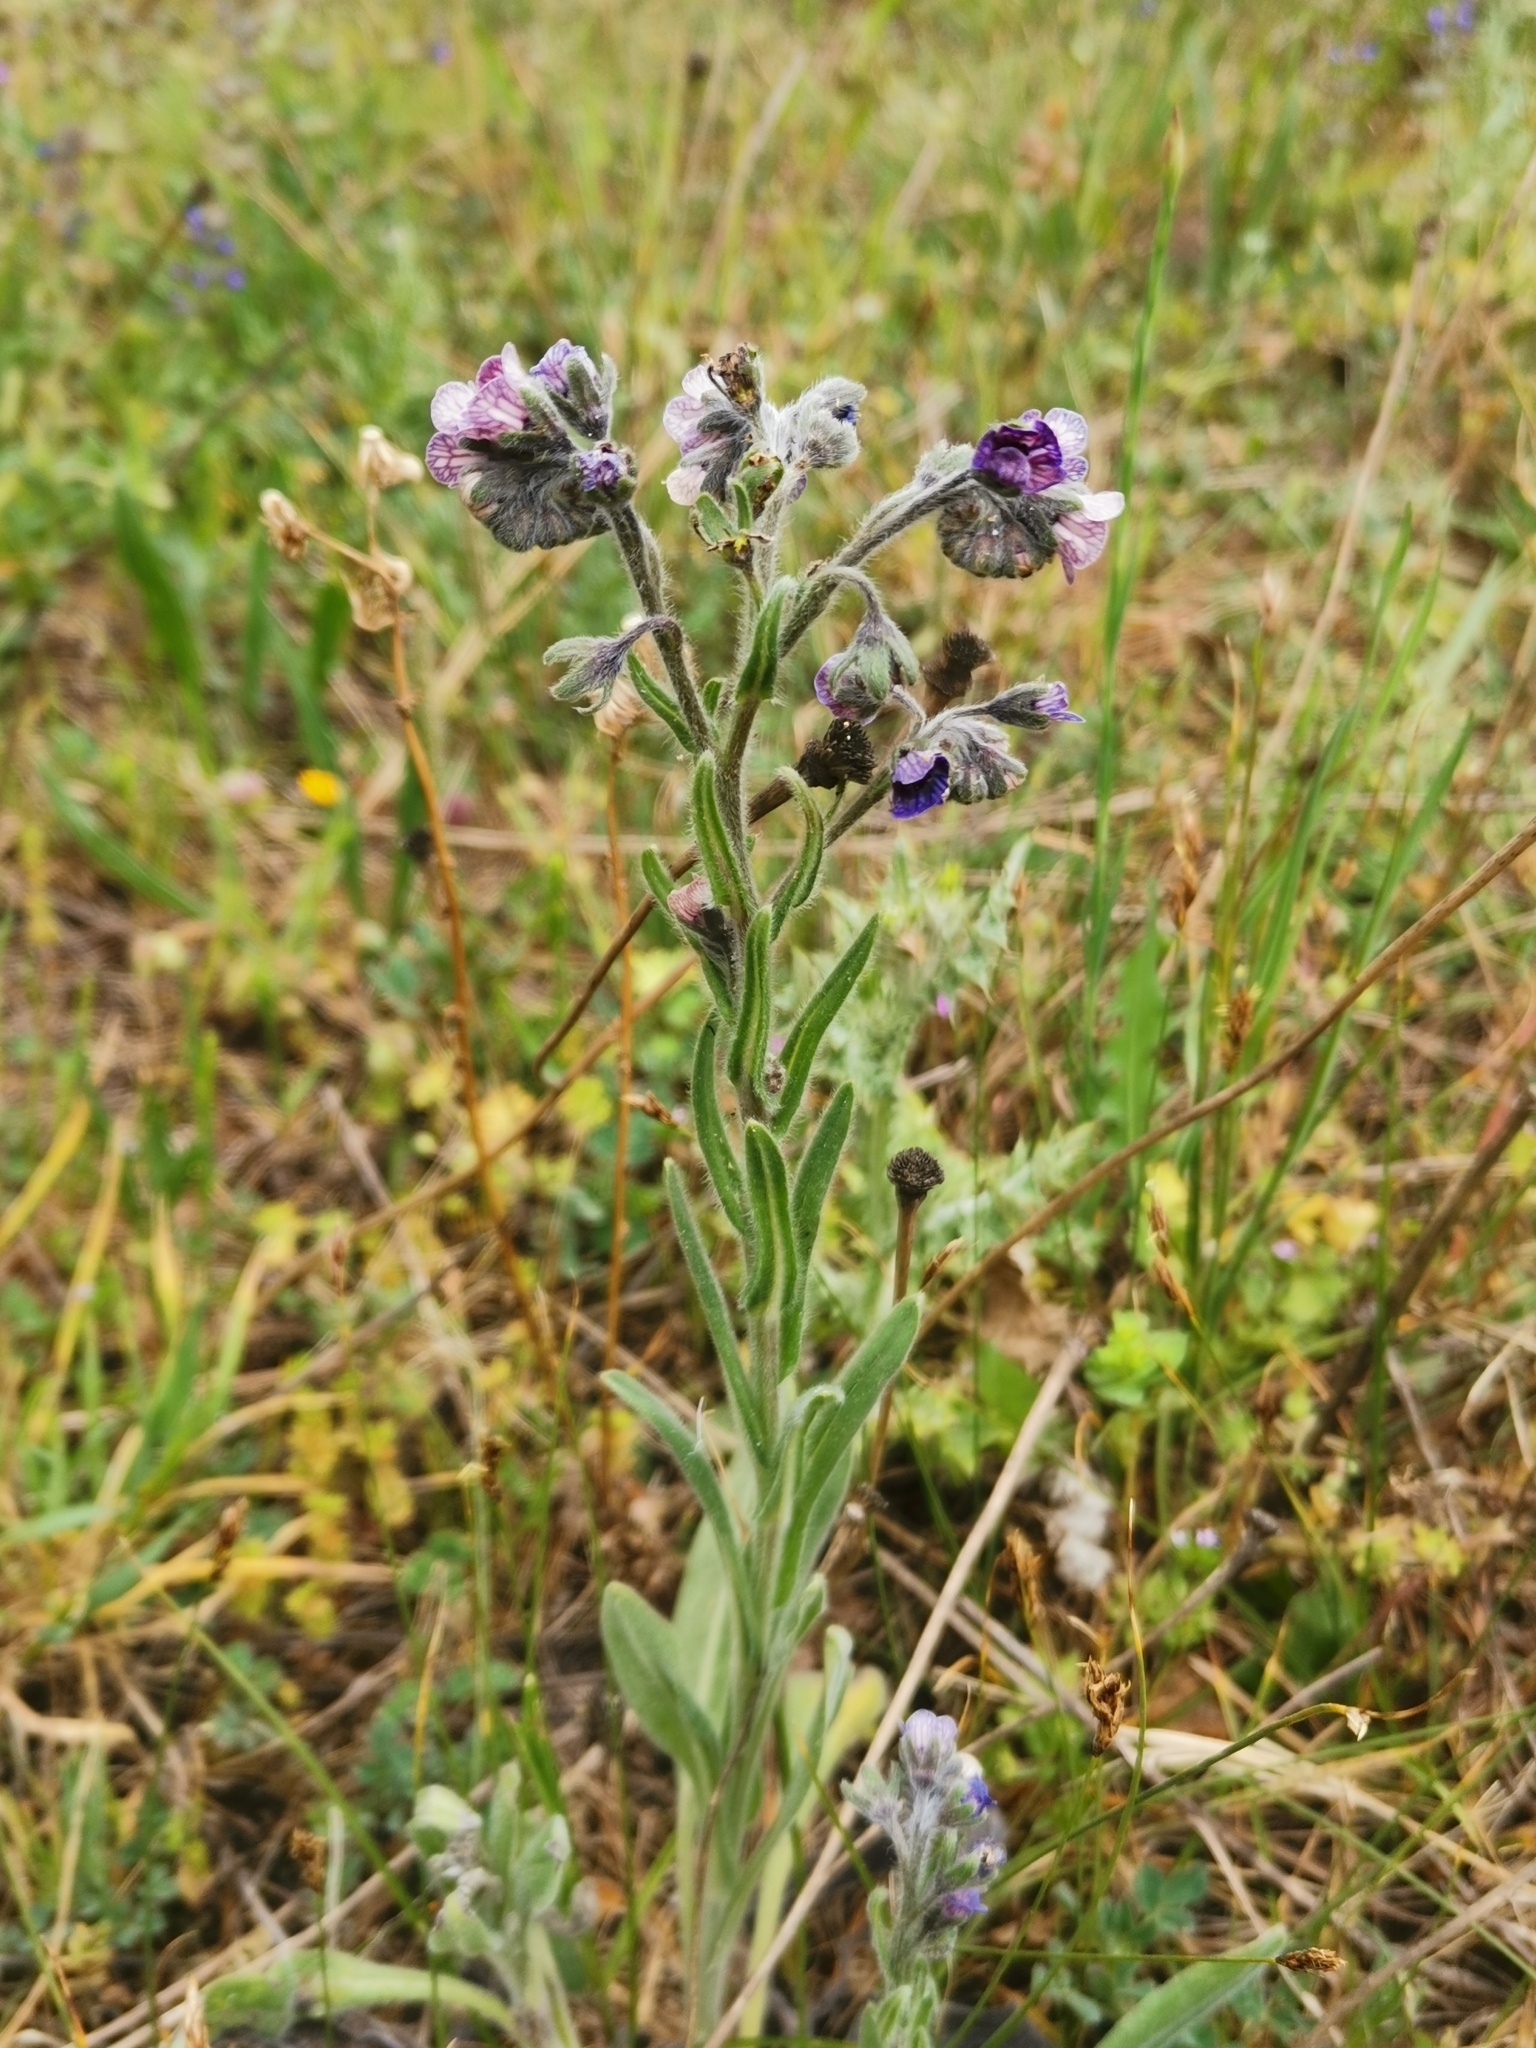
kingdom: Plantae
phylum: Tracheophyta
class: Magnoliopsida
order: Boraginales
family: Boraginaceae
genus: Cynoglossum
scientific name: Cynoglossum creticum
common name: Blue hound's tongue
